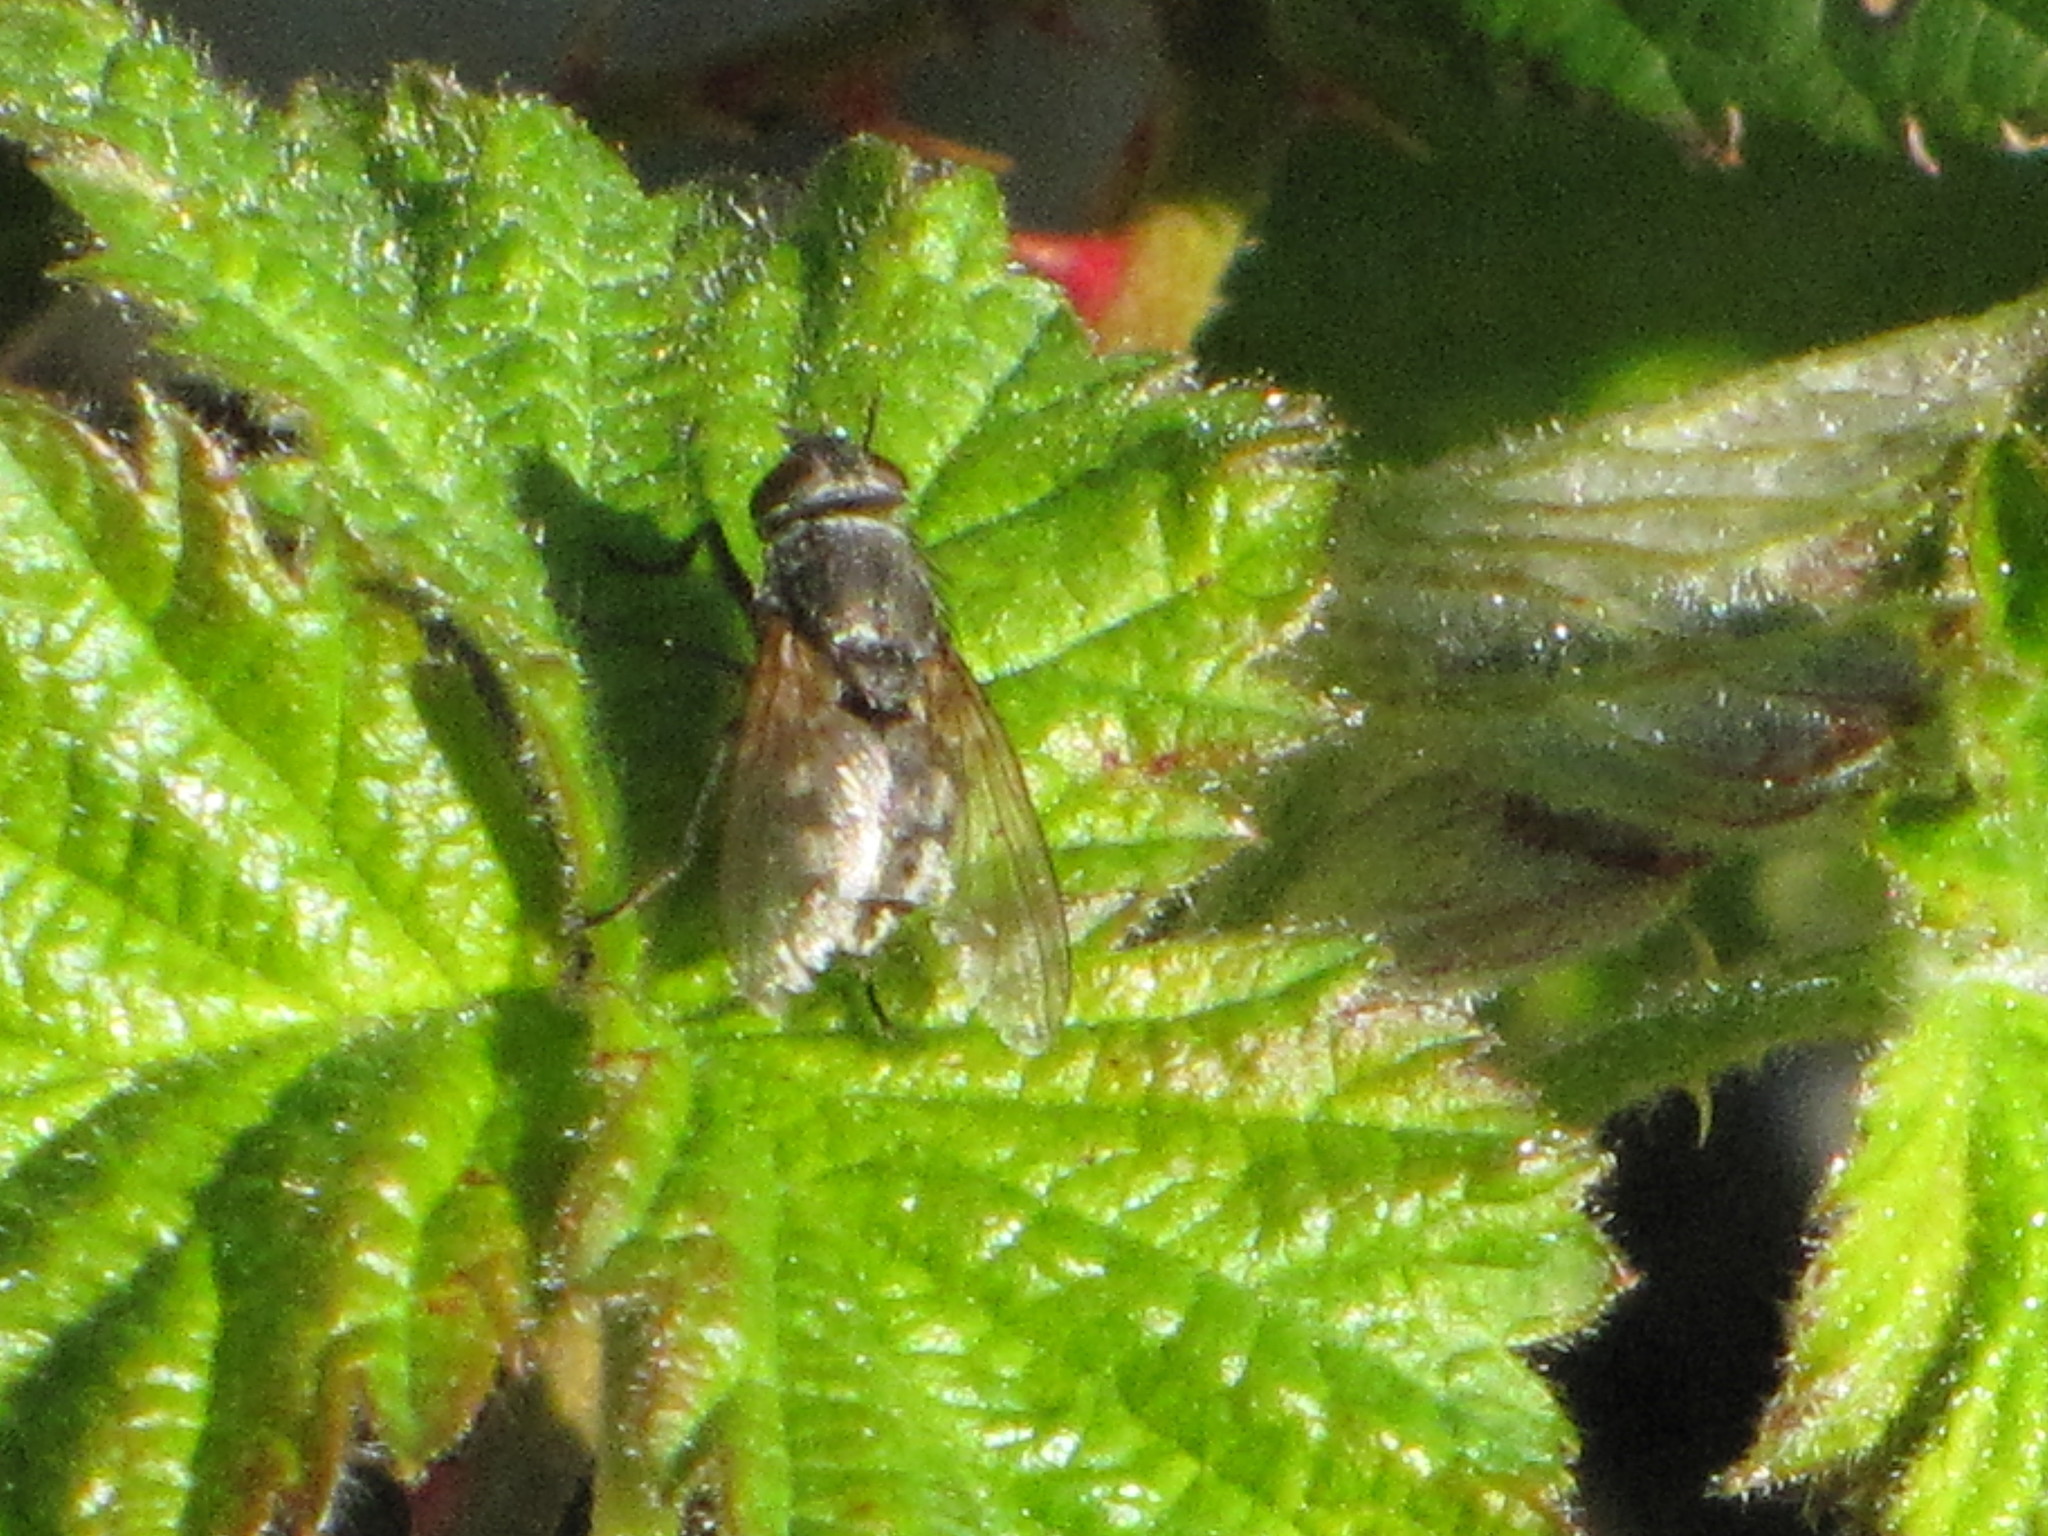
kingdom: Animalia
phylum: Arthropoda
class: Insecta
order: Diptera
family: Polleniidae
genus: Pollenia
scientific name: Pollenia
